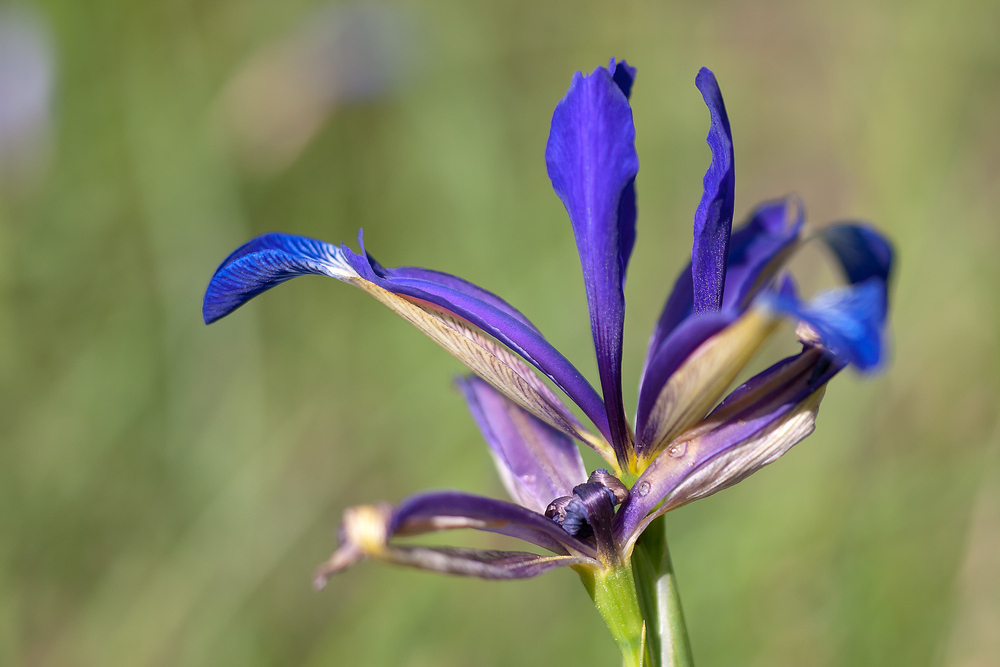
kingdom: Plantae
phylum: Tracheophyta
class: Liliopsida
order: Asparagales
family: Iridaceae
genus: Iris
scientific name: Iris reichenbachiana
